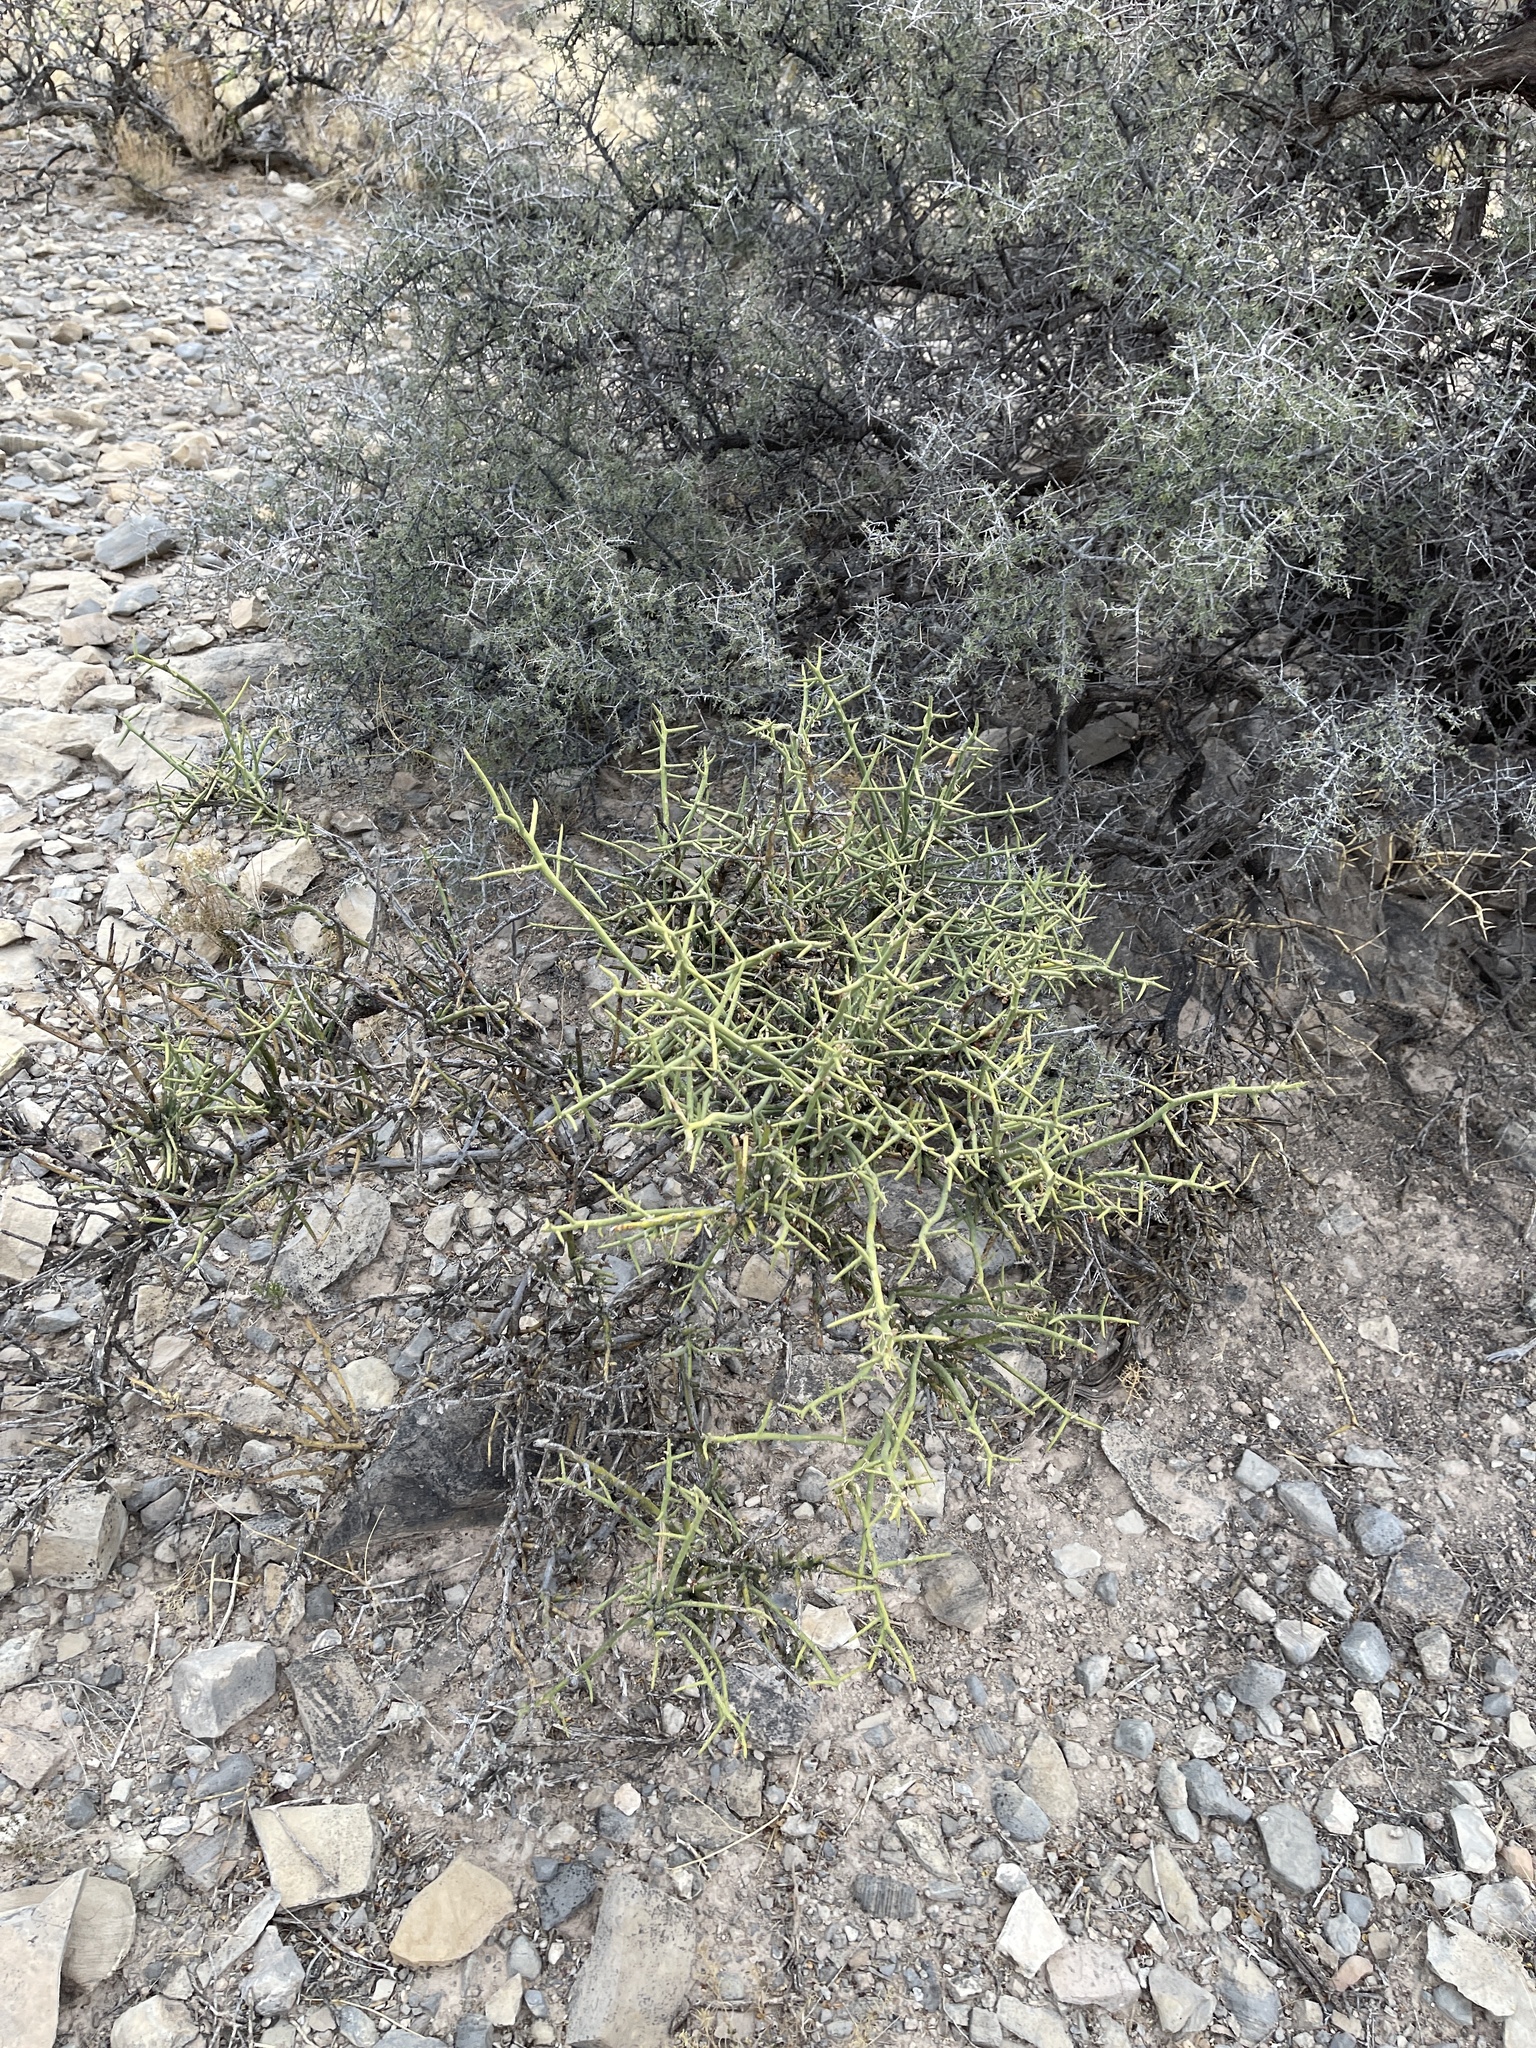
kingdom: Plantae
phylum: Tracheophyta
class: Magnoliopsida
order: Brassicales
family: Koeberliniaceae
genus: Koeberlinia
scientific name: Koeberlinia spinosa
